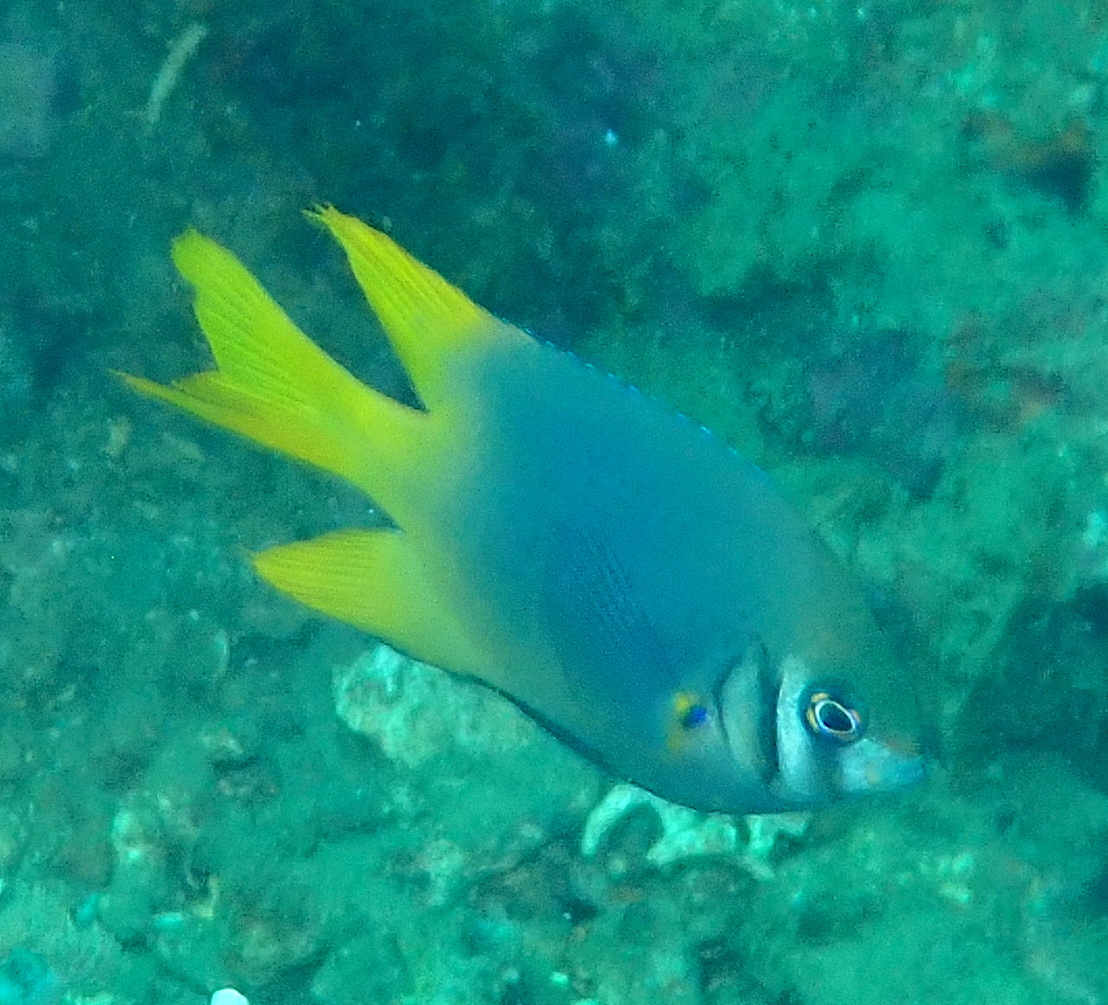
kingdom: Animalia
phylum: Chordata
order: Perciformes
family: Pomacentridae
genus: Neoglyphidodon
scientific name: Neoglyphidodon nigroris
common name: Behn's damsel
